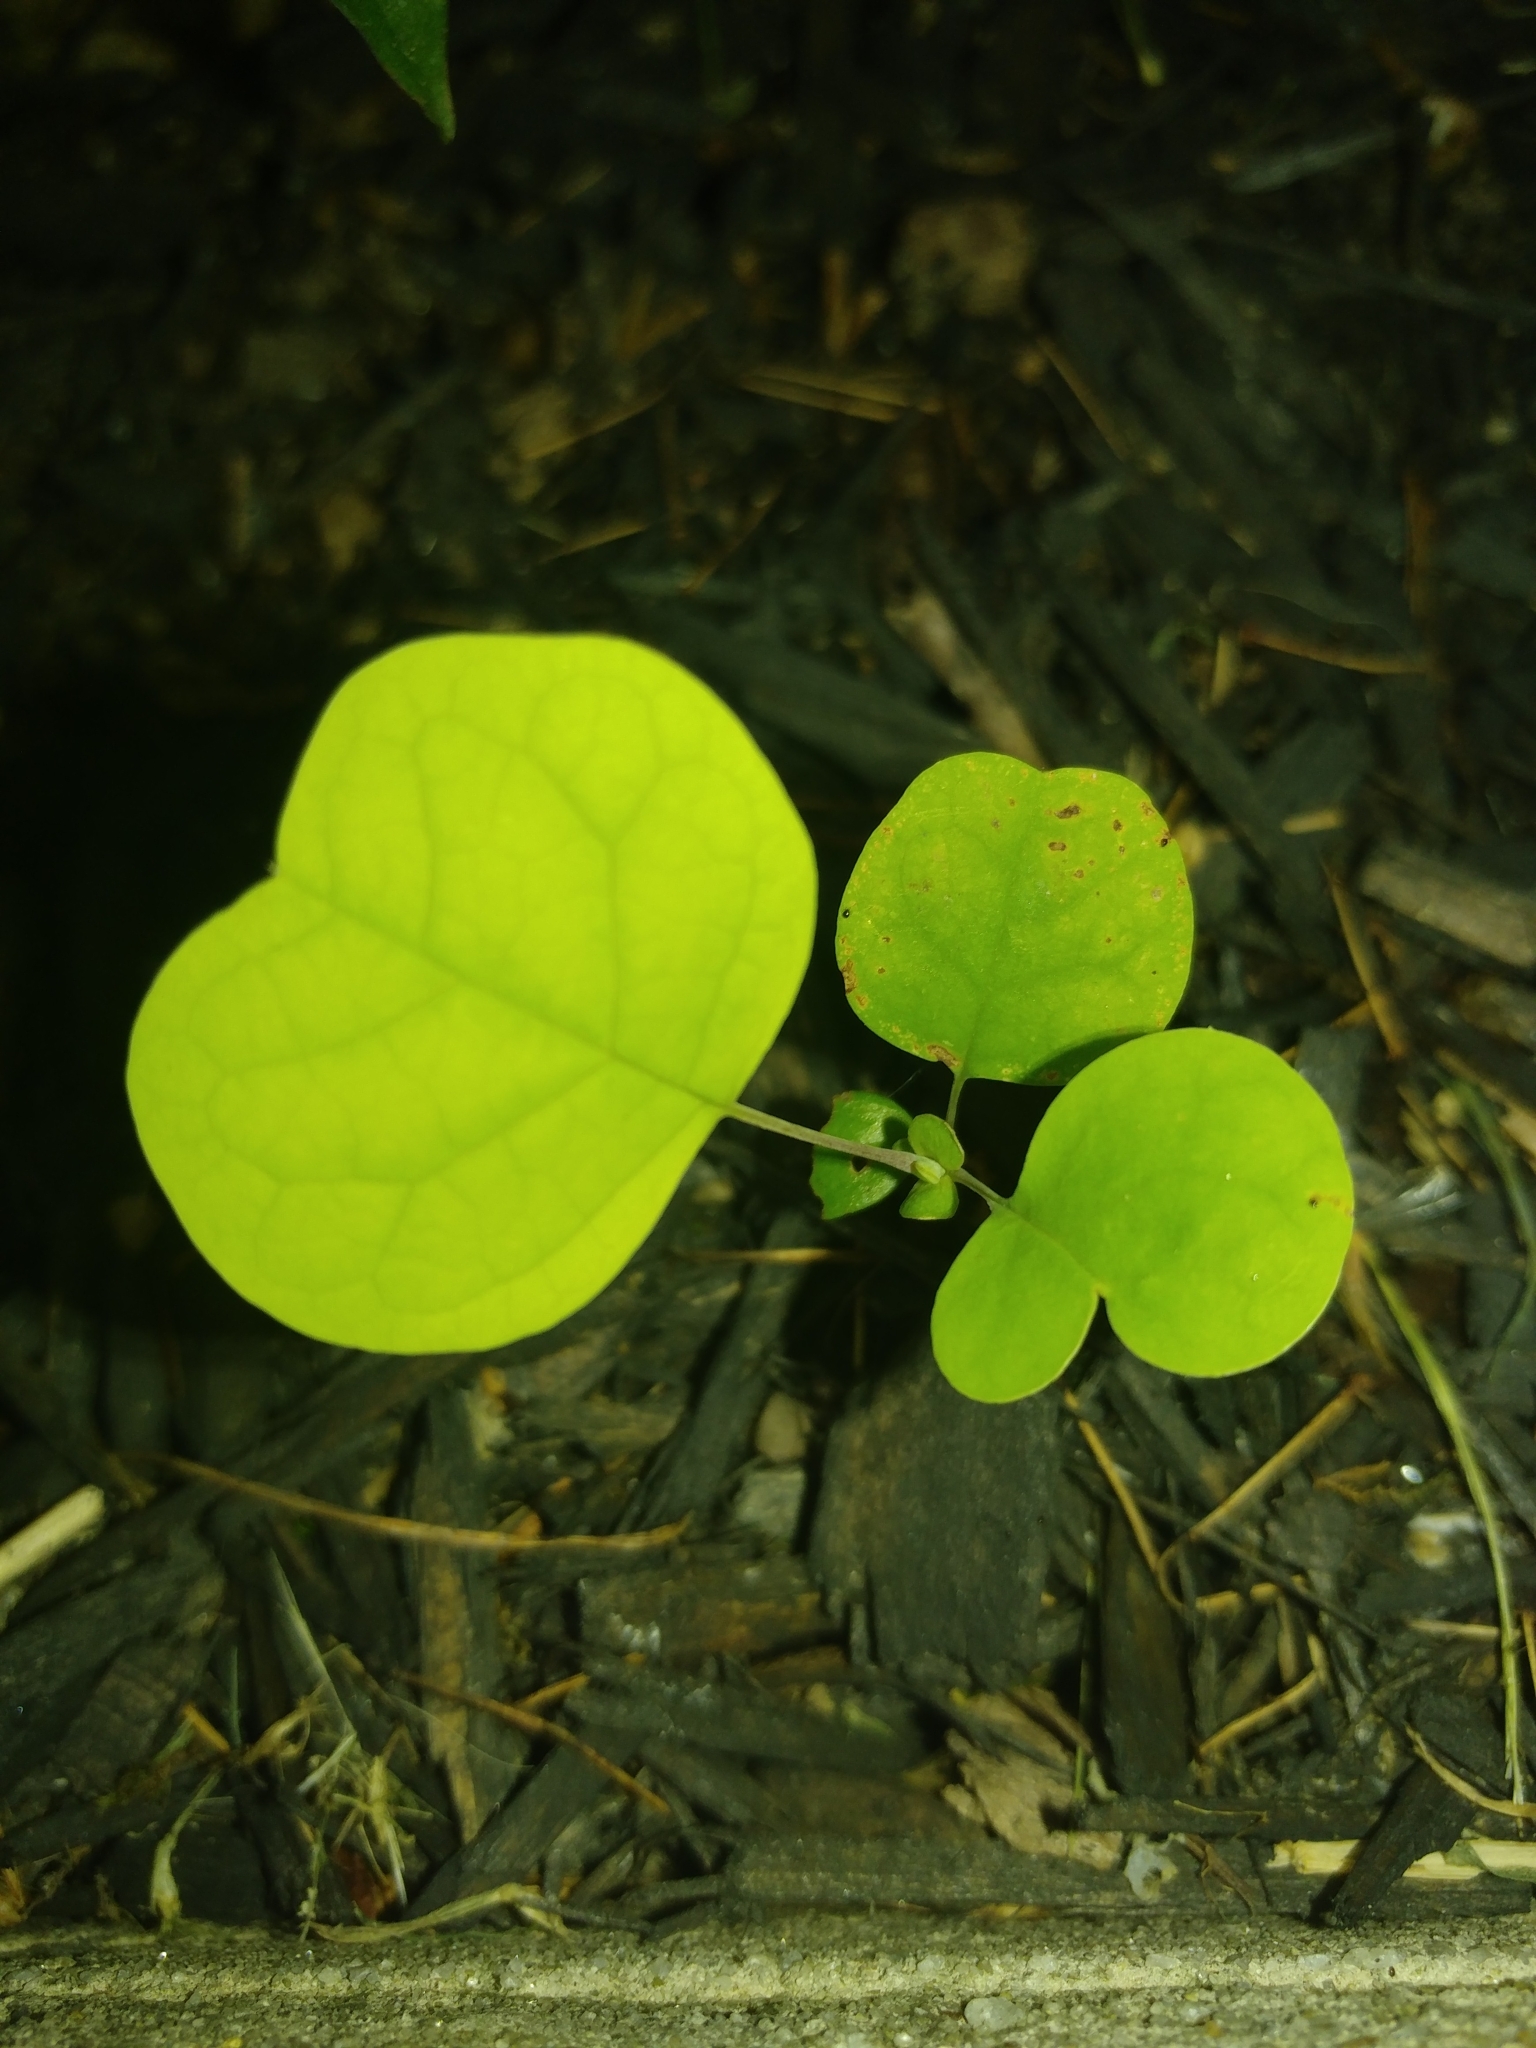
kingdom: Plantae
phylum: Tracheophyta
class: Magnoliopsida
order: Magnoliales
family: Magnoliaceae
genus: Liriodendron
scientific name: Liriodendron tulipifera
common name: Tulip tree
